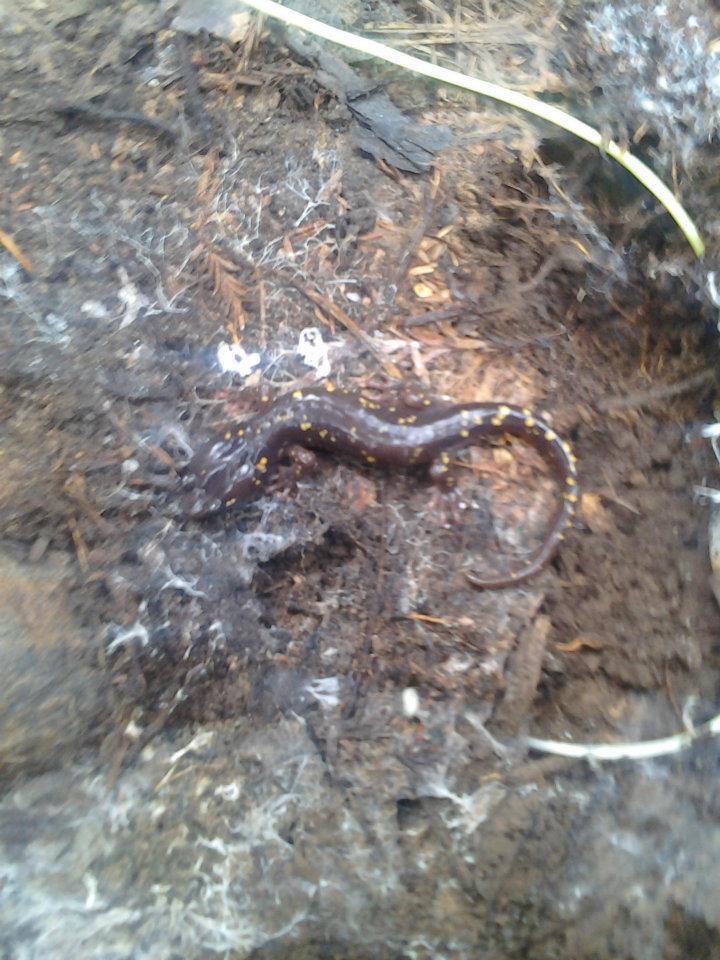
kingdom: Animalia
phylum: Chordata
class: Amphibia
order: Caudata
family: Plethodontidae
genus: Aneides
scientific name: Aneides lugubris
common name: Arboreal salamander
